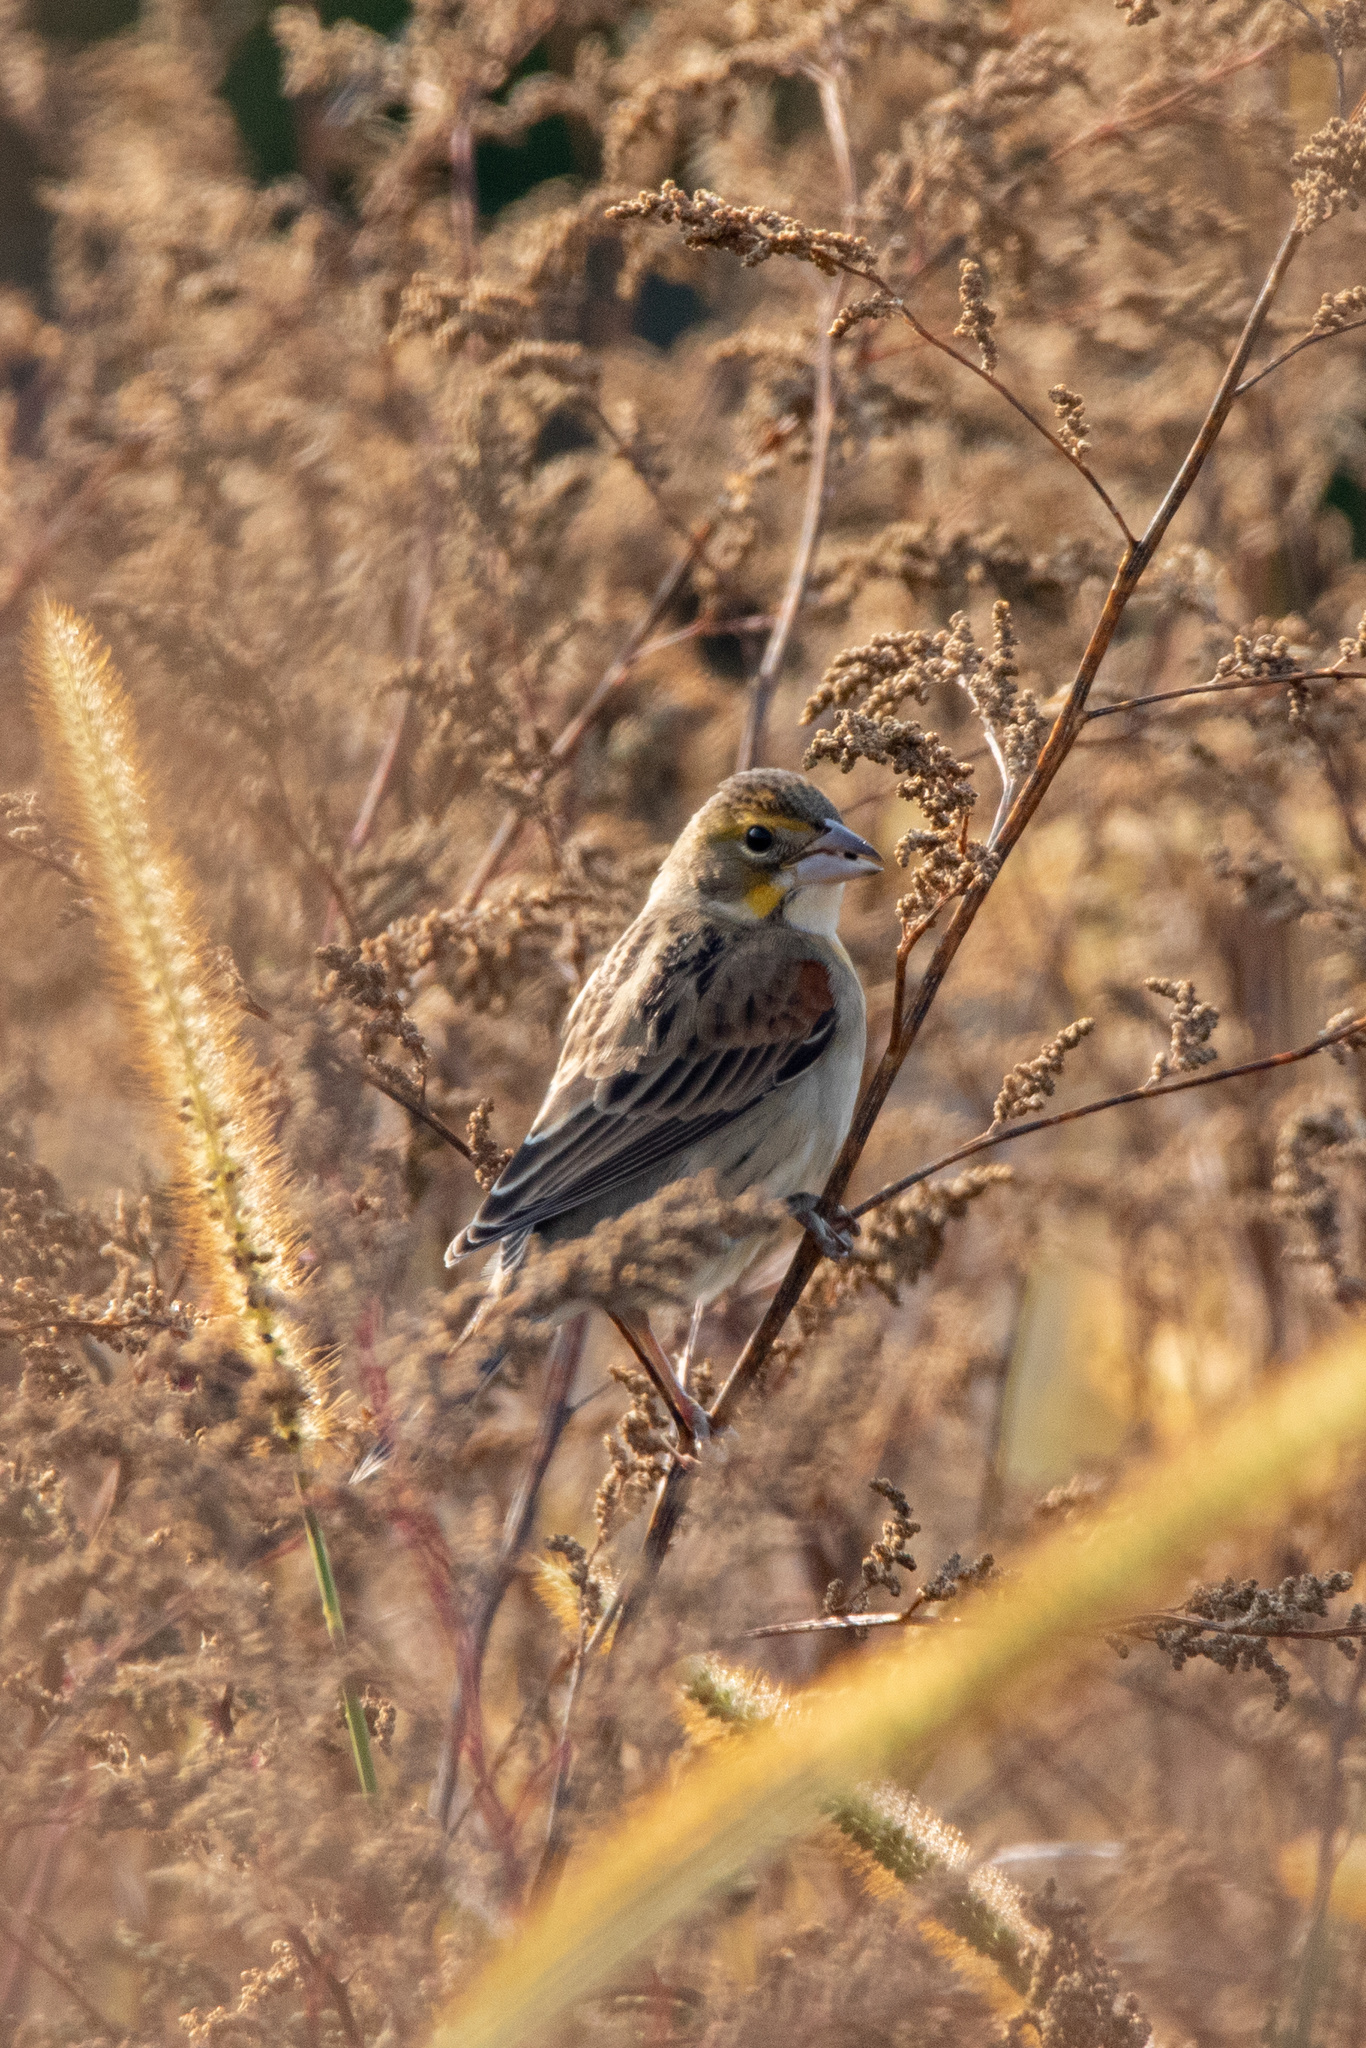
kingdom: Animalia
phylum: Chordata
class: Aves
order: Passeriformes
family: Cardinalidae
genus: Spiza
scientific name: Spiza americana
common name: Dickcissel
